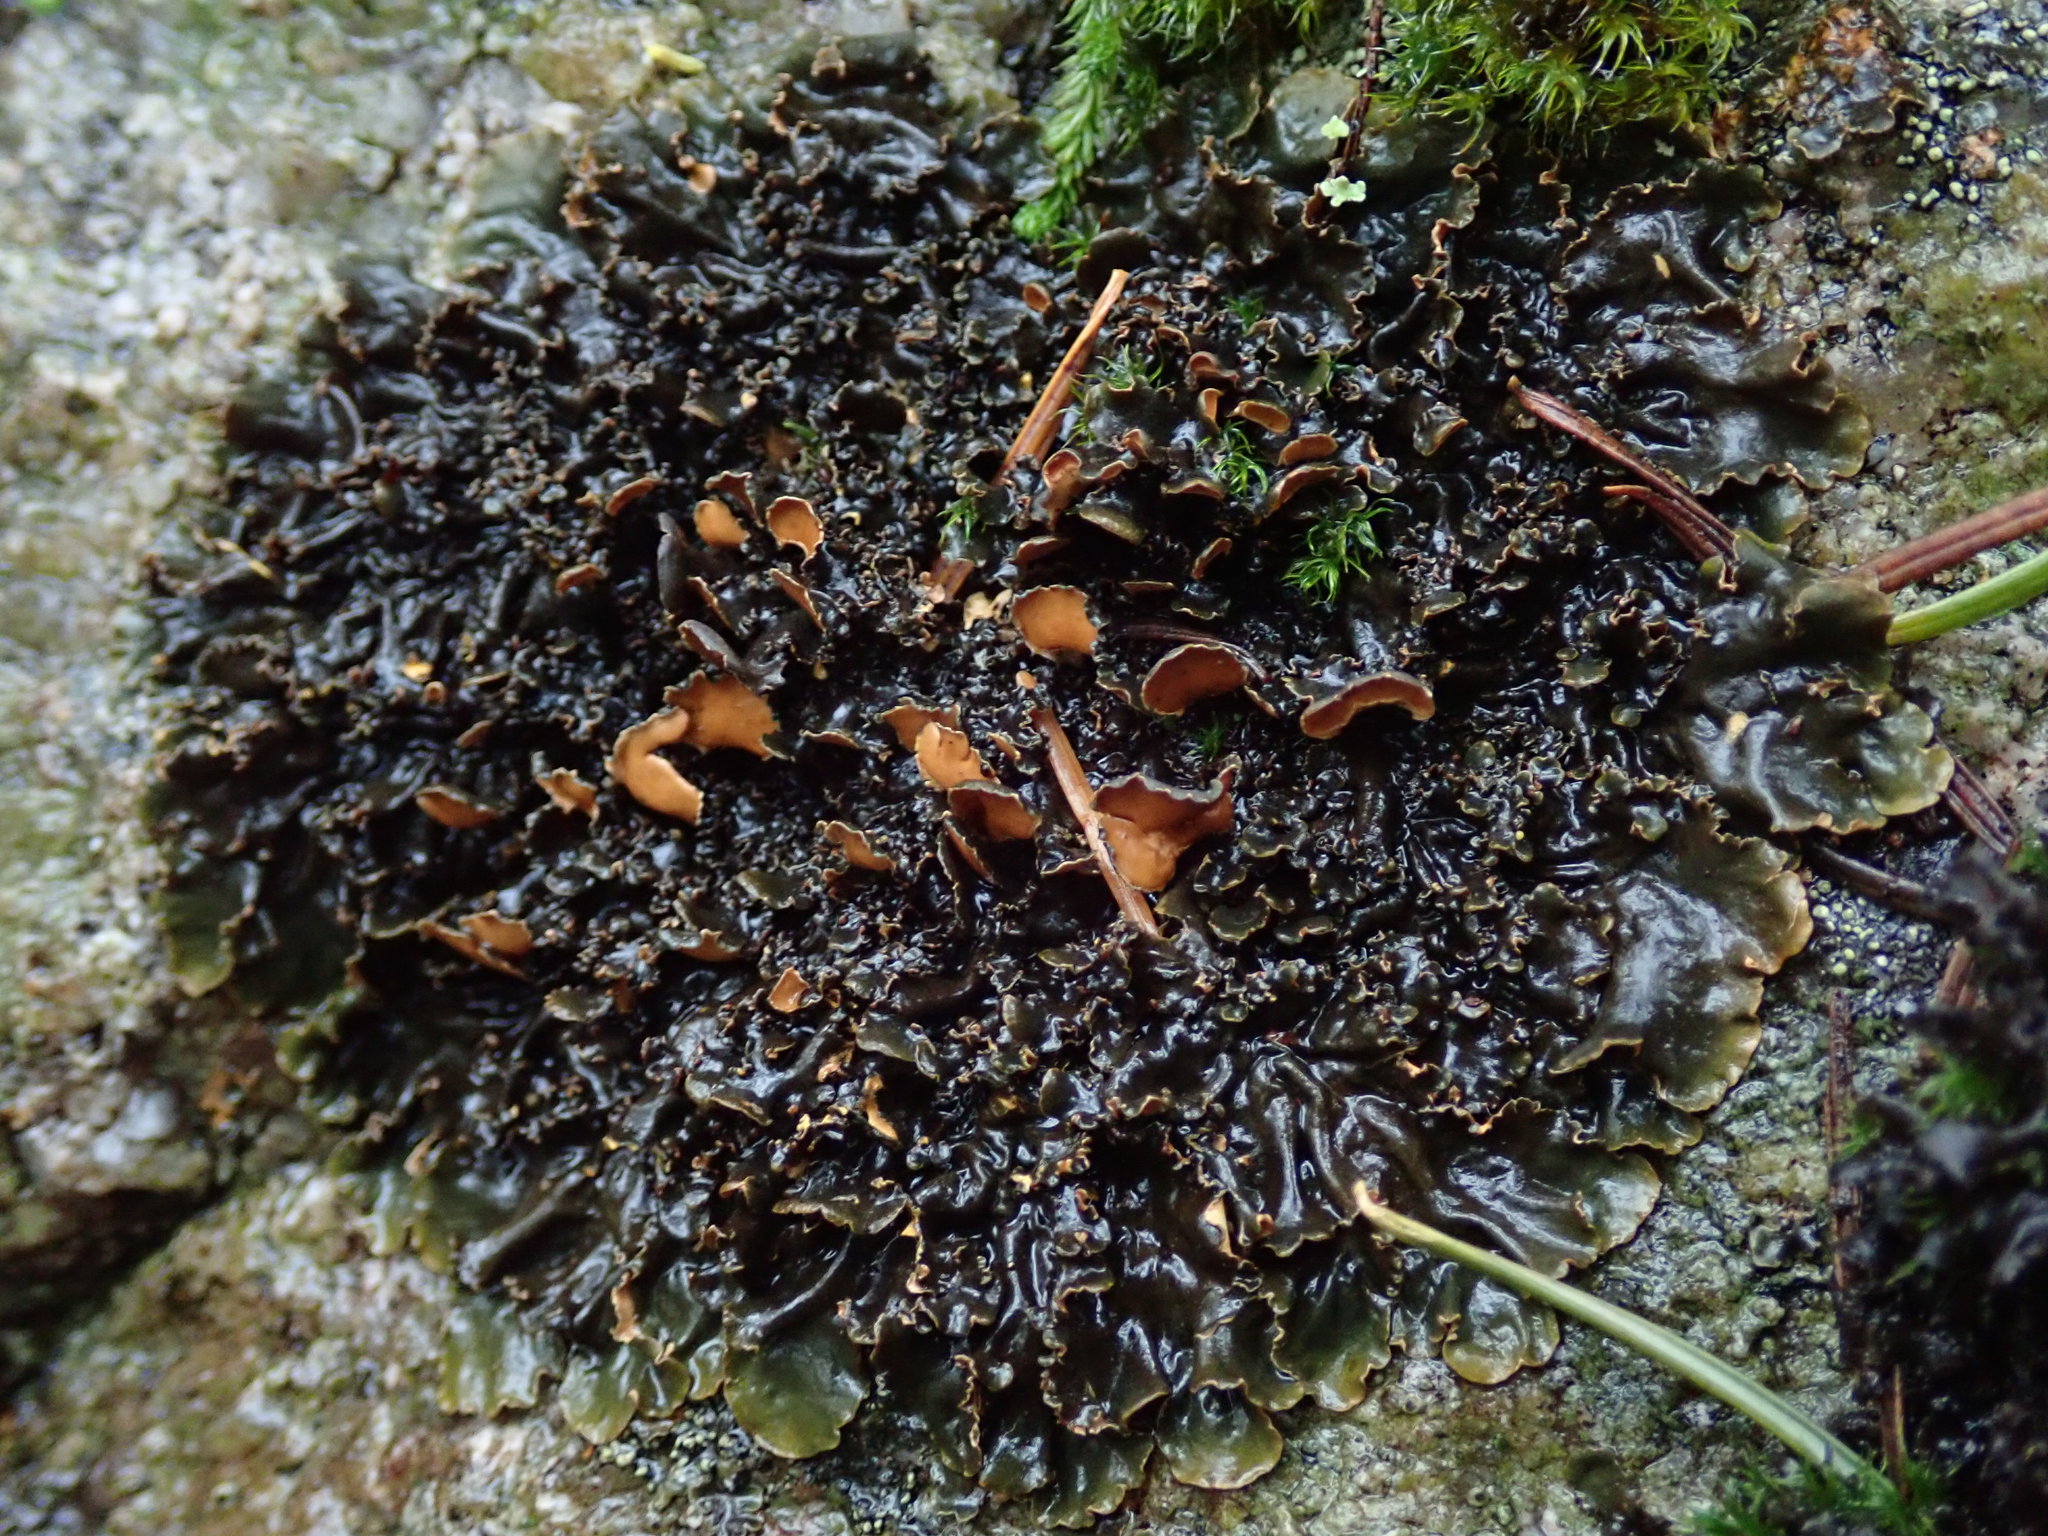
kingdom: Fungi
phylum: Ascomycota
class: Lecanoromycetes
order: Peltigerales
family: Nephromataceae
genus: Nephroma
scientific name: Nephroma laevigatum
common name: Mustard kidney lichen
